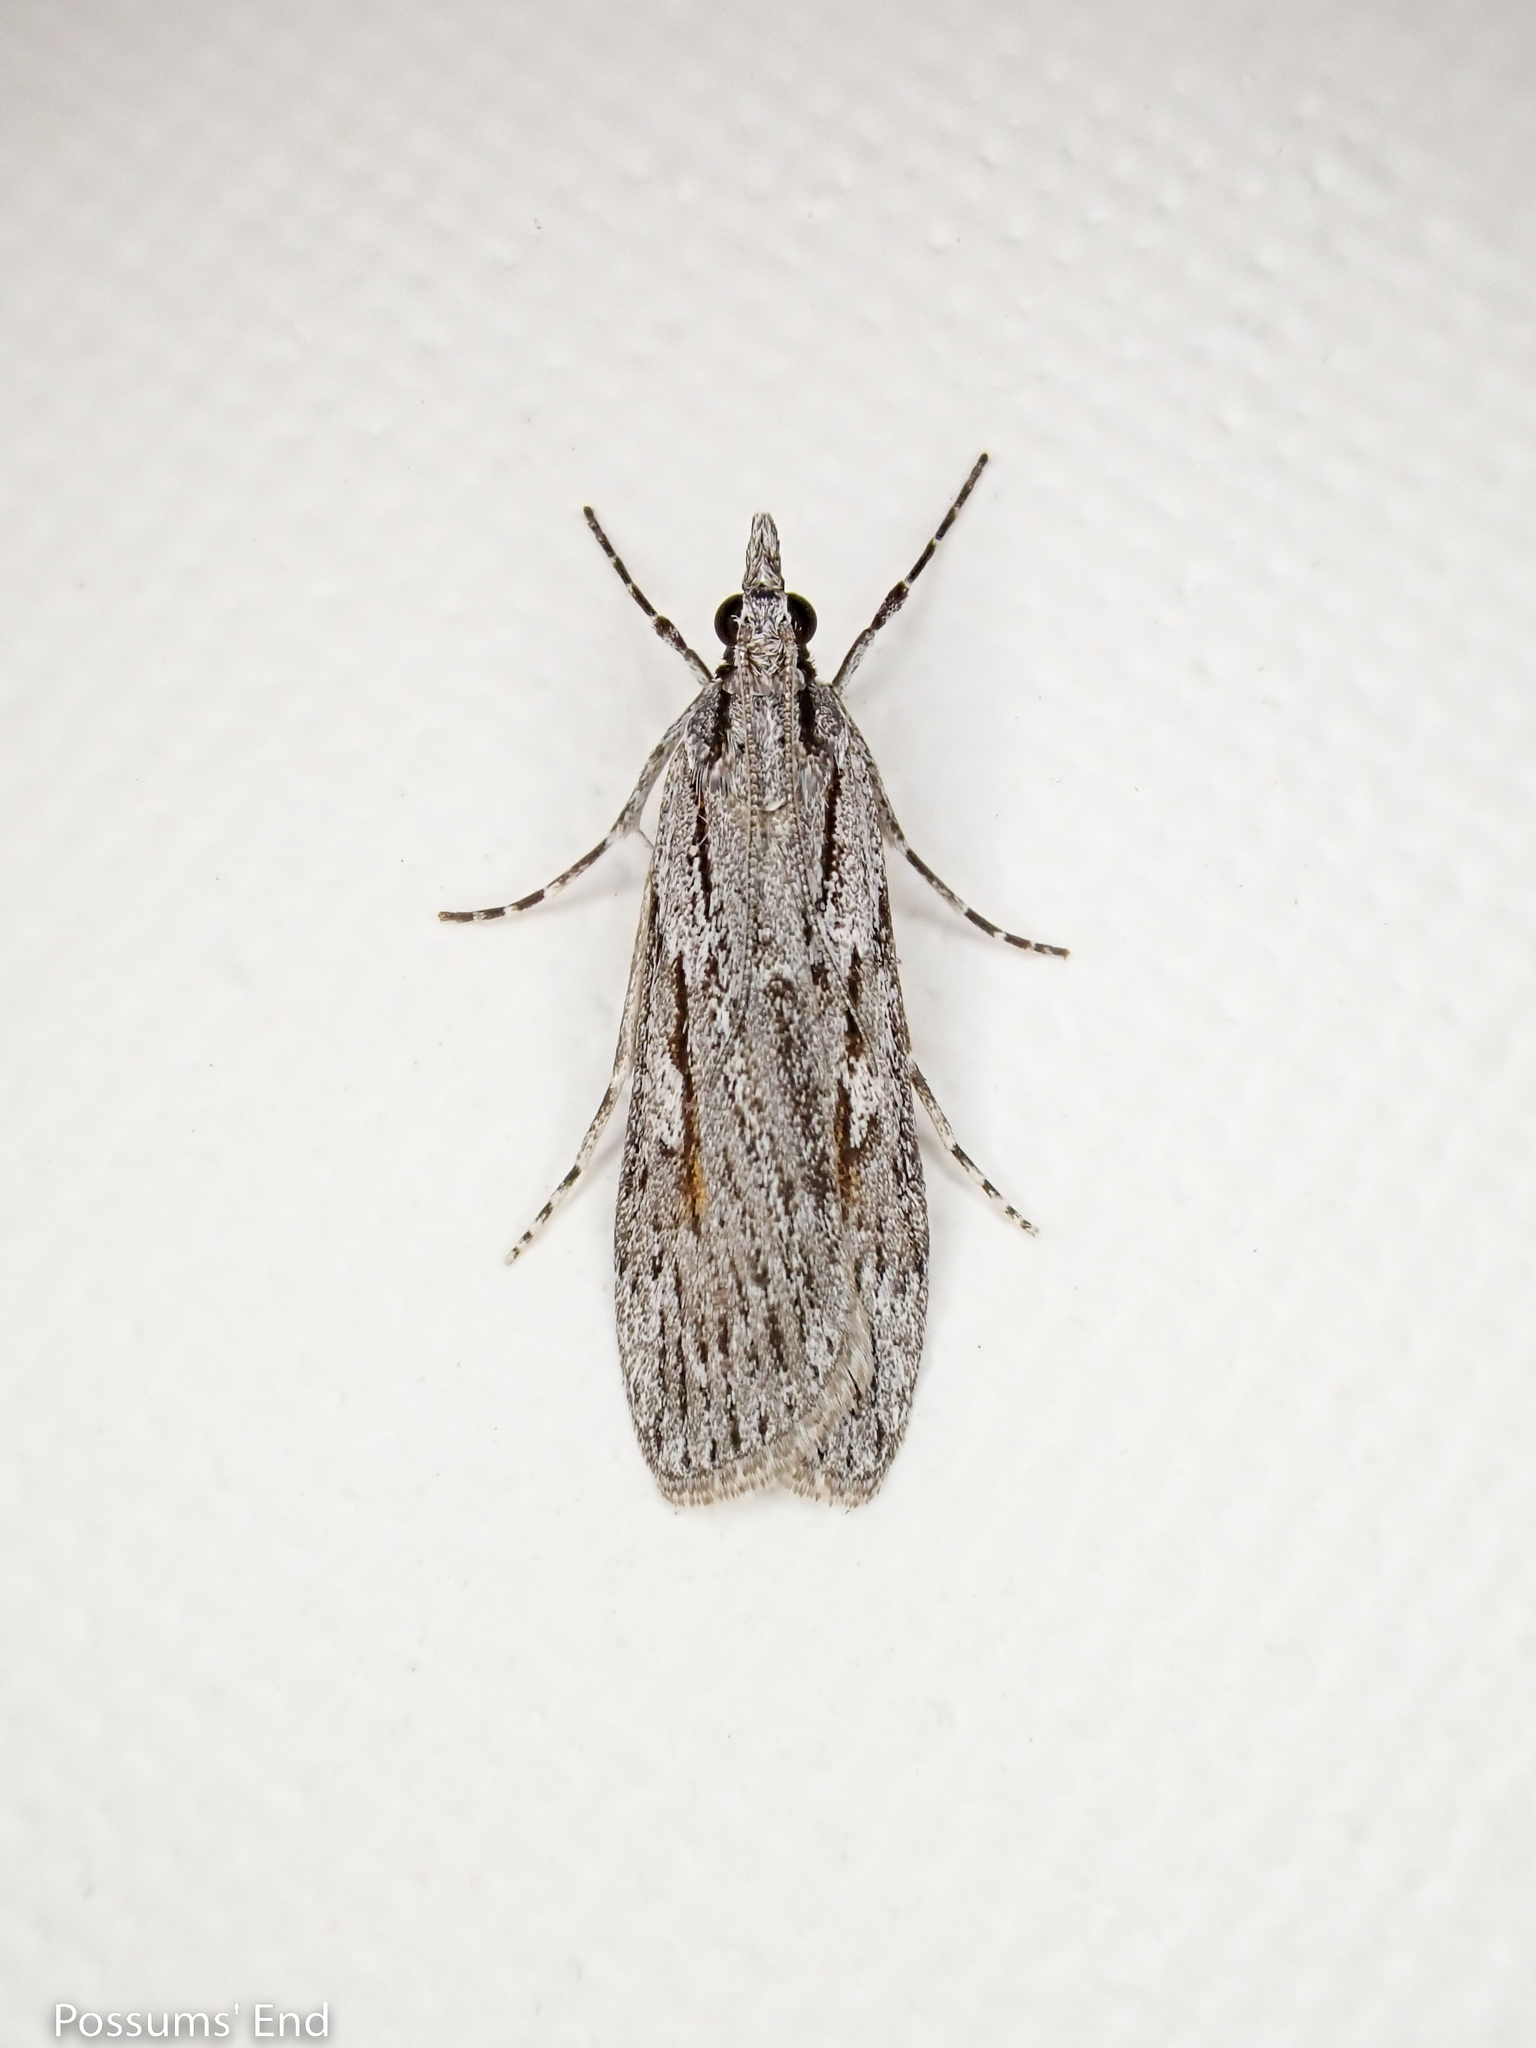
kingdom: Animalia
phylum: Arthropoda
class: Insecta
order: Lepidoptera
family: Crambidae
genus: Scoparia
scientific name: Scoparia indistinctalis
